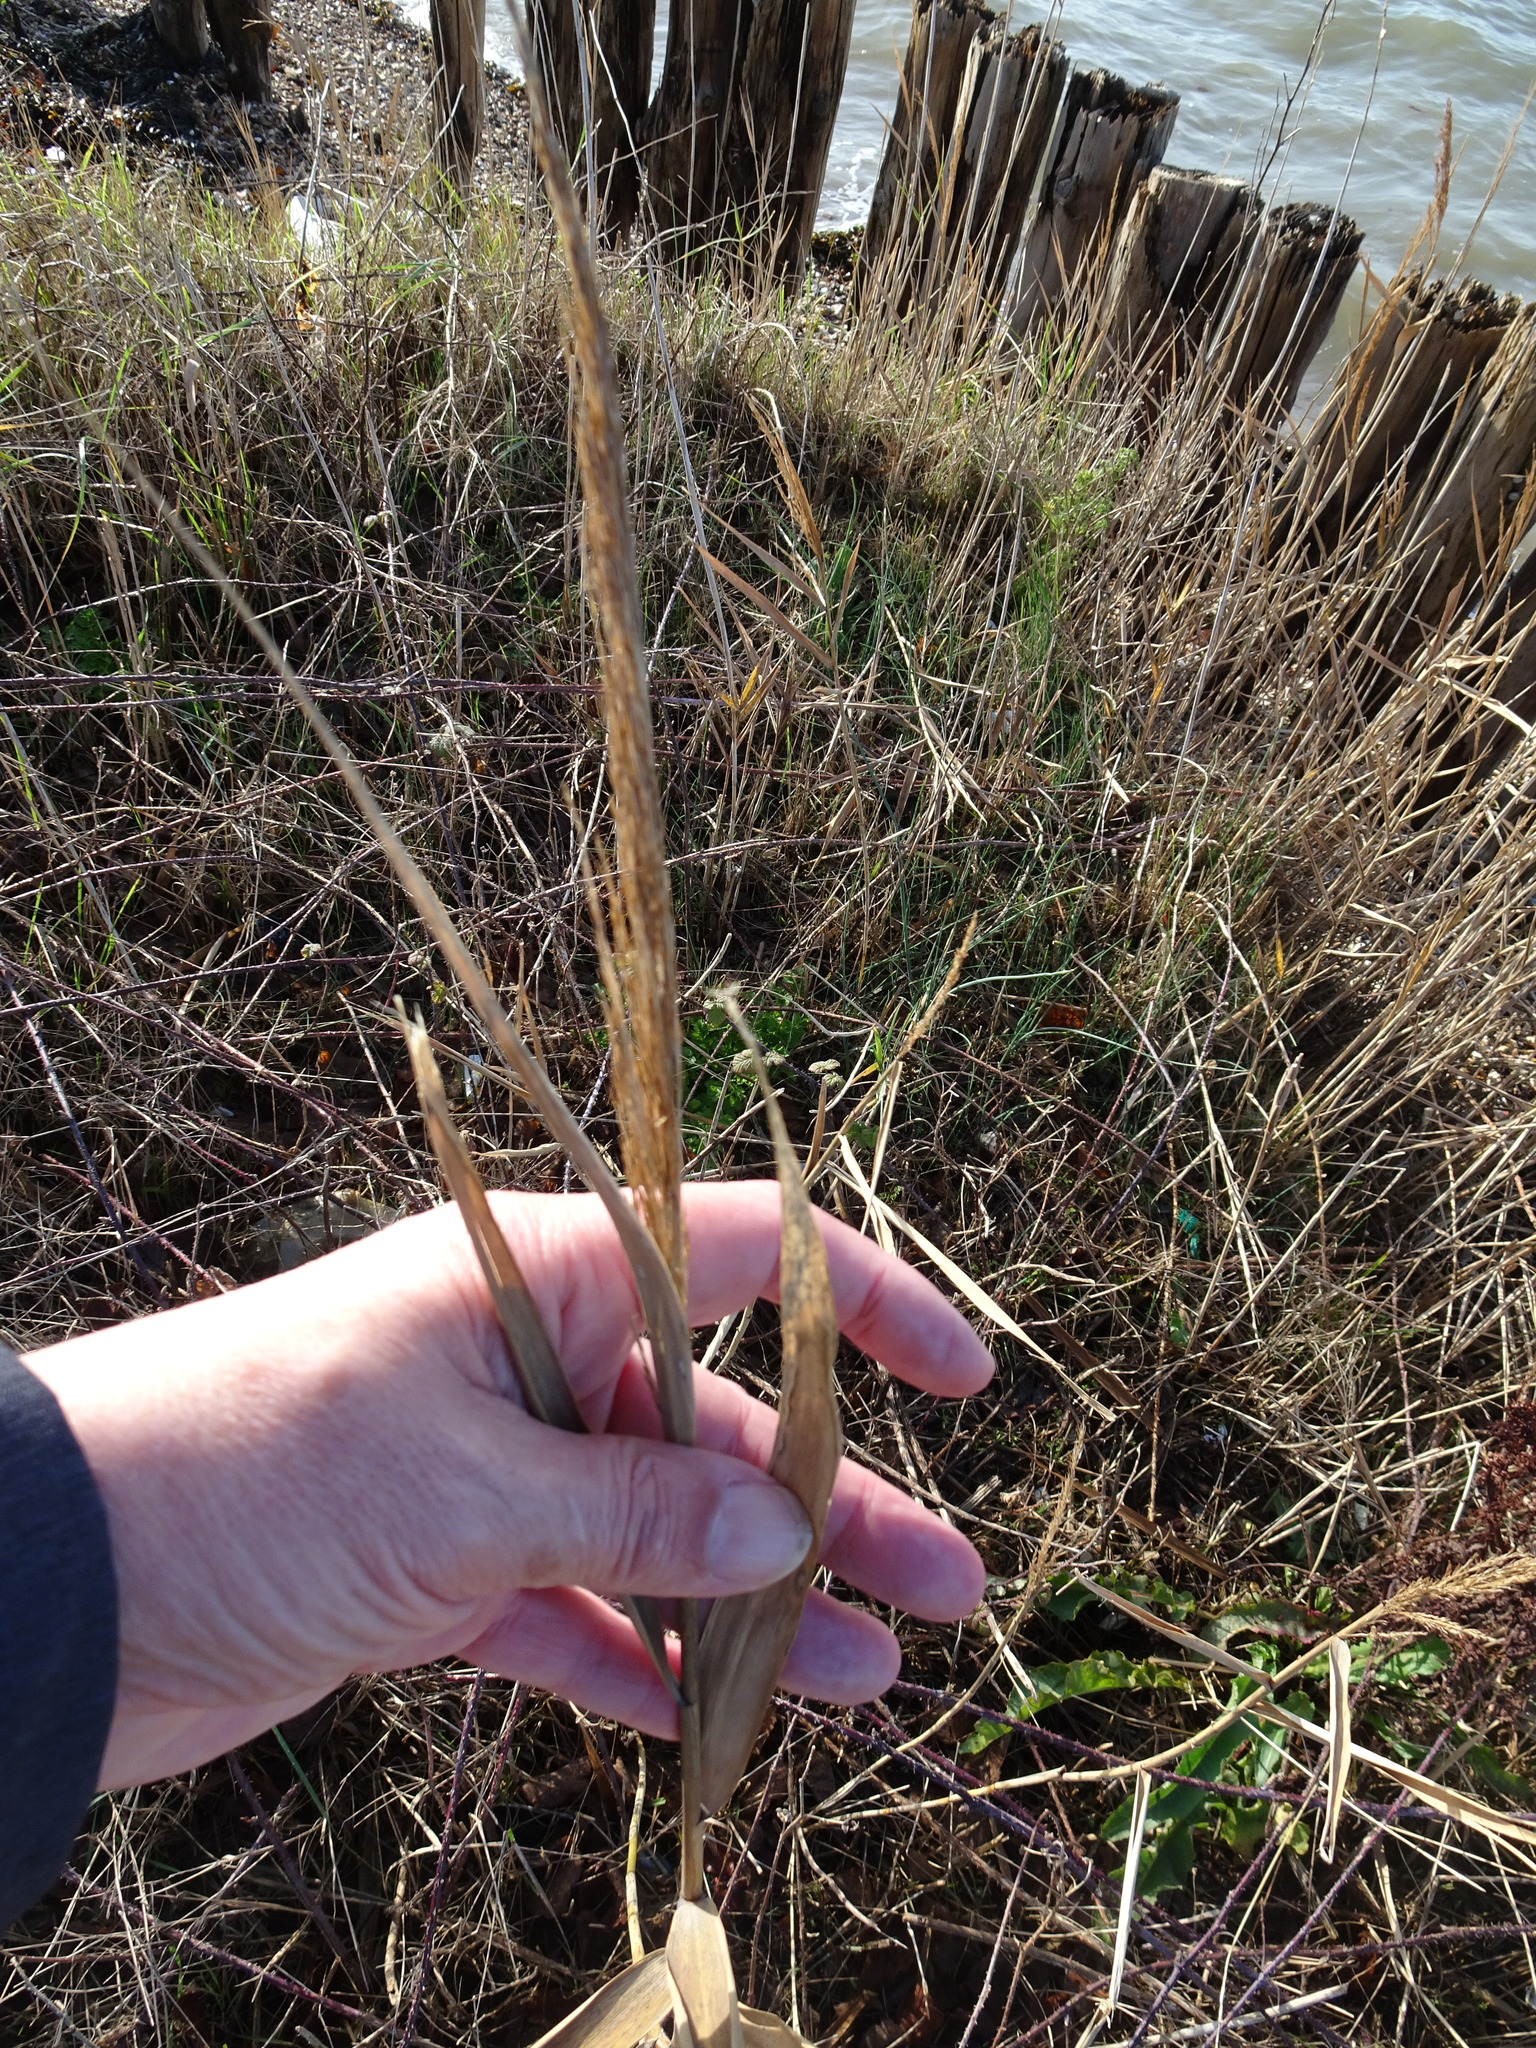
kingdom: Plantae
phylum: Tracheophyta
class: Liliopsida
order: Poales
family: Poaceae
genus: Phragmites
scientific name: Phragmites australis
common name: Common reed
